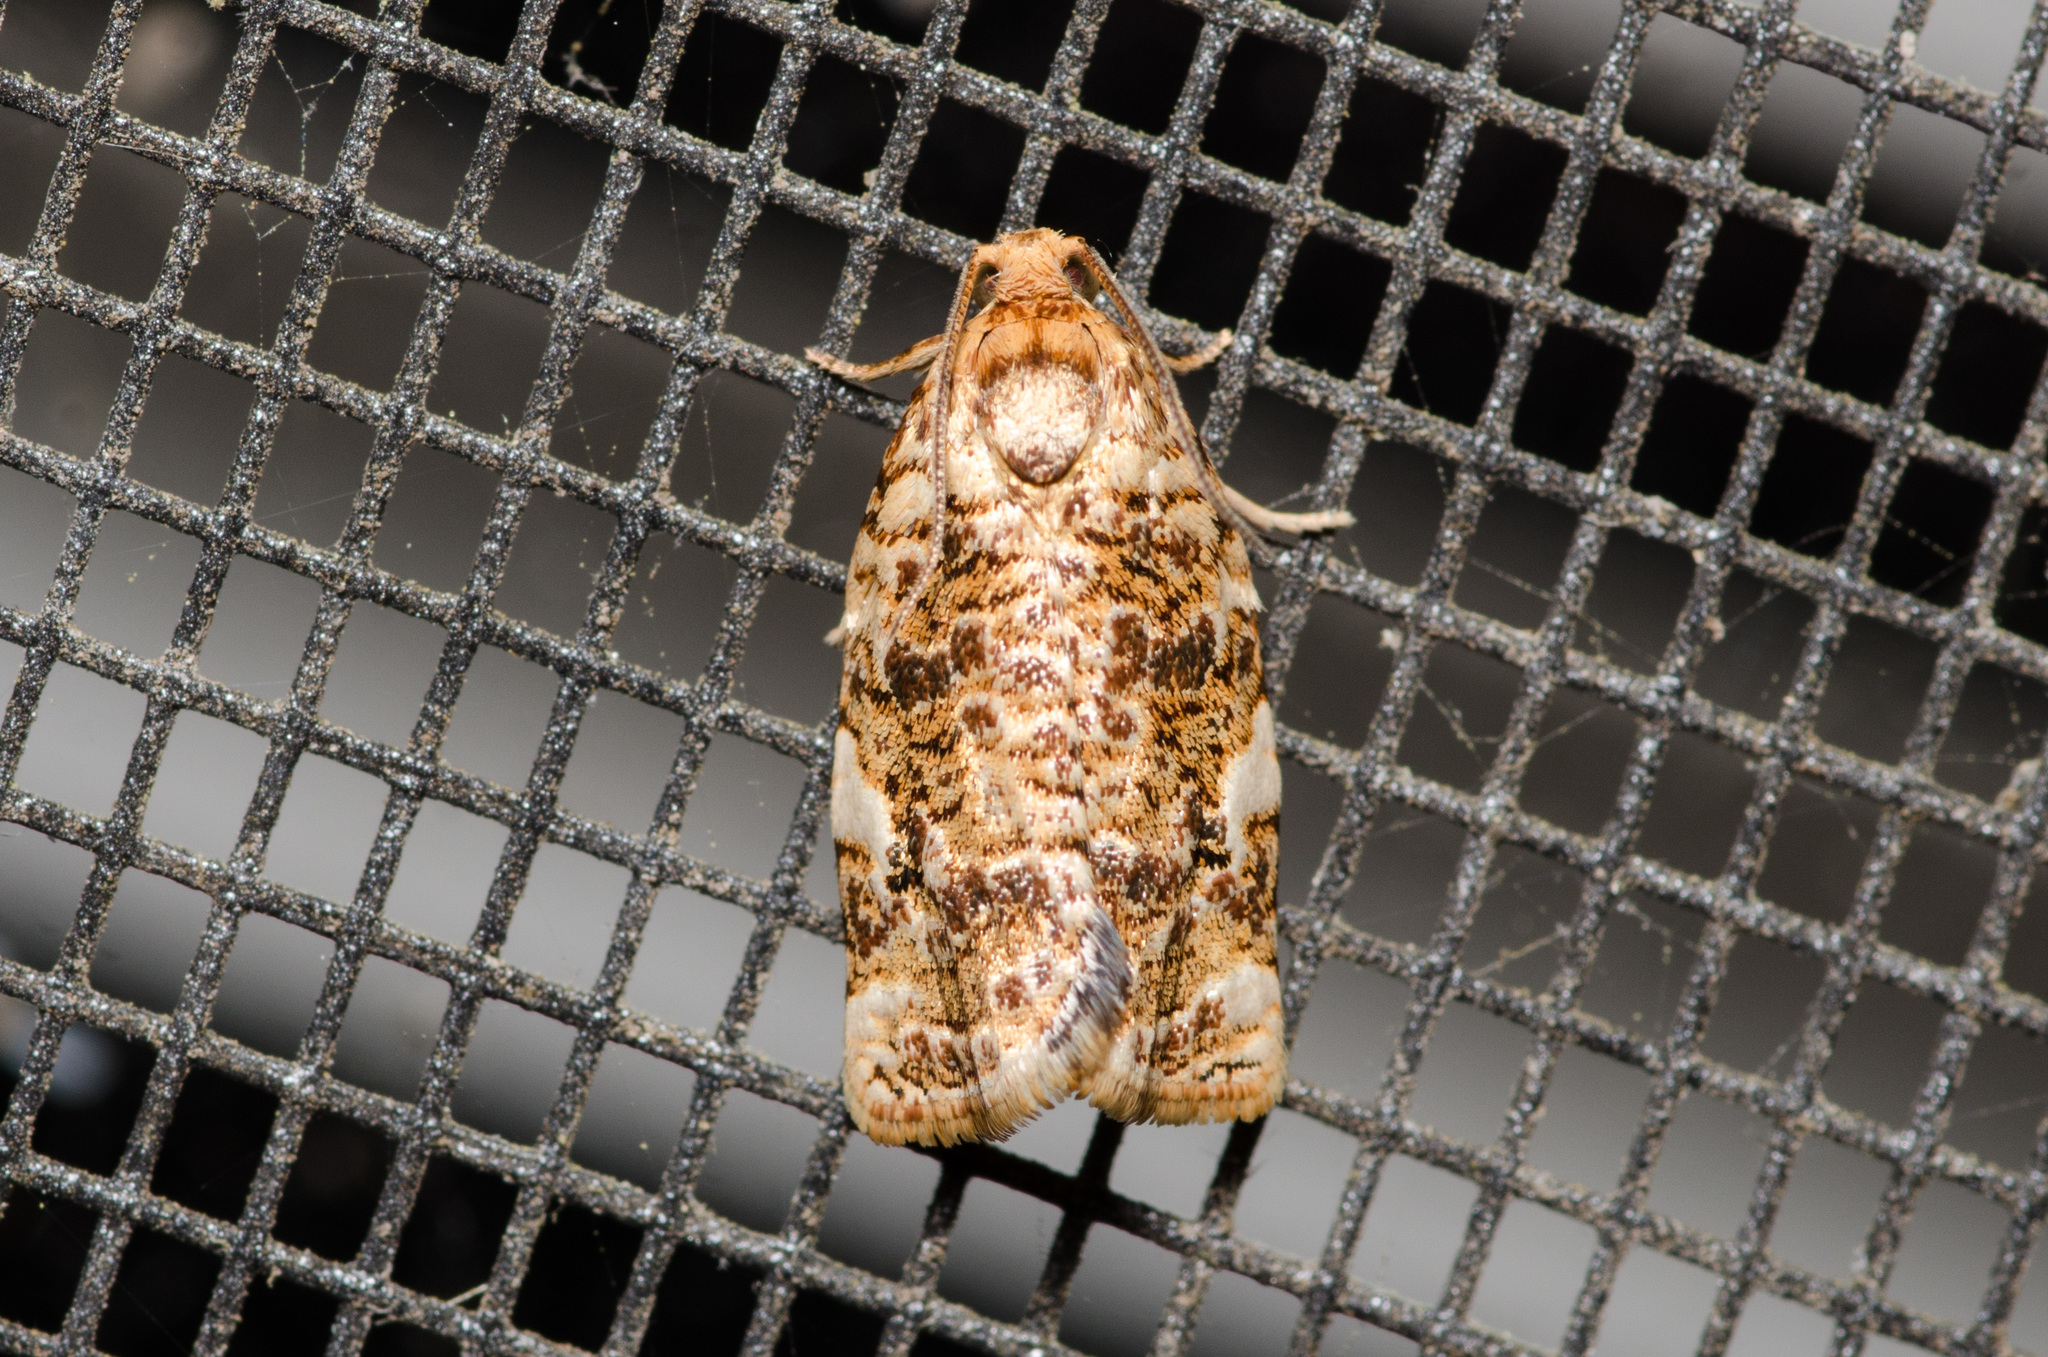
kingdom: Animalia
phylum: Arthropoda
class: Insecta
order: Lepidoptera
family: Tortricidae
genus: Archips
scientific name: Archips argyrospila
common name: Fruit-tree leafroller moth
